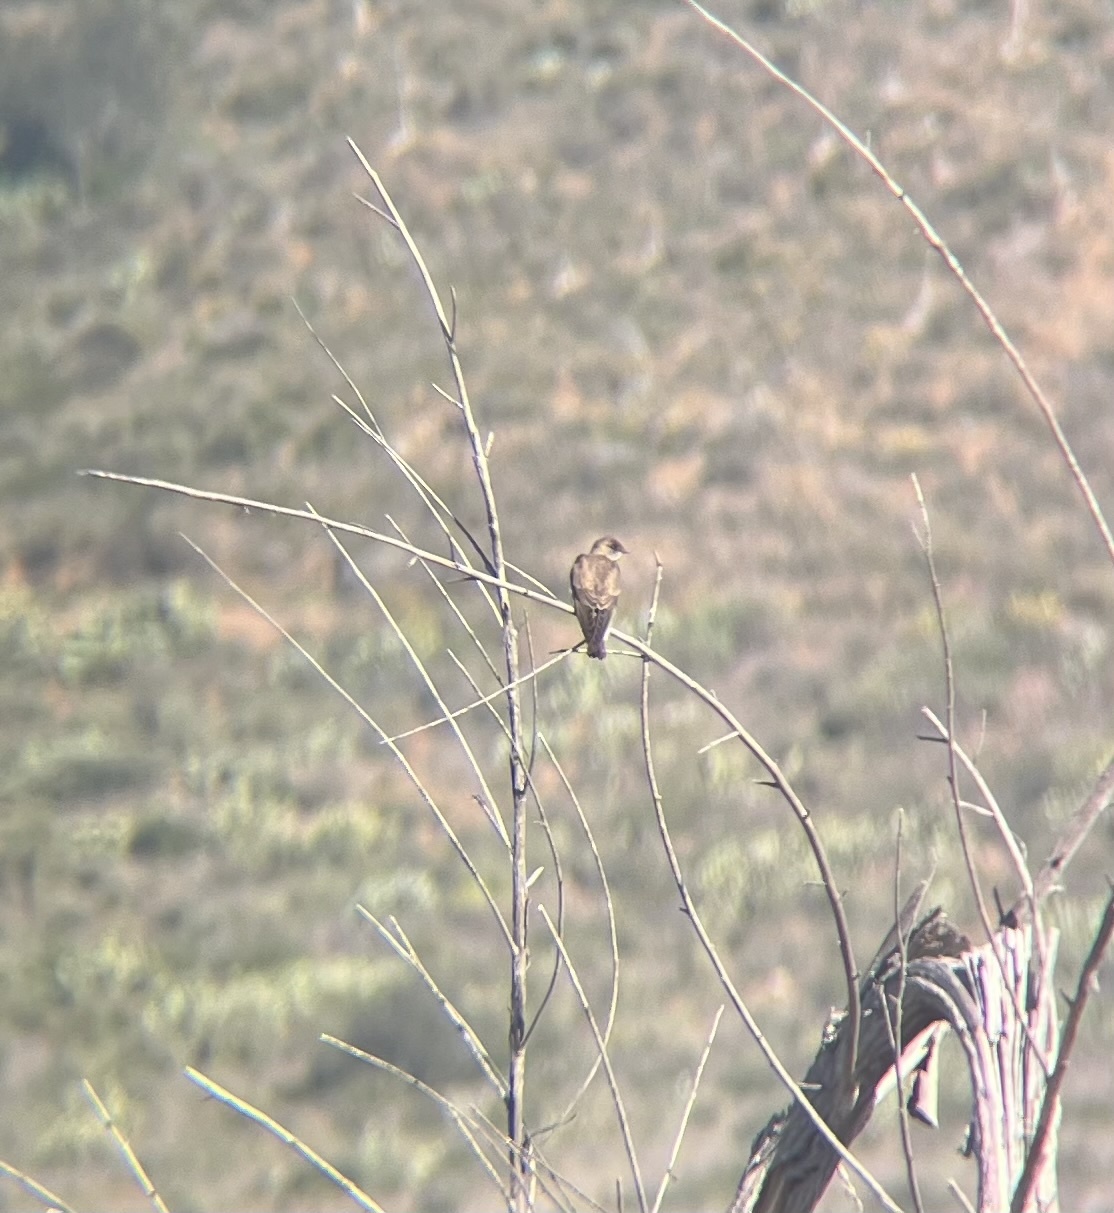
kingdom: Animalia
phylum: Chordata
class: Aves
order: Passeriformes
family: Hirundinidae
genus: Stelgidopteryx
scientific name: Stelgidopteryx serripennis
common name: Northern rough-winged swallow
